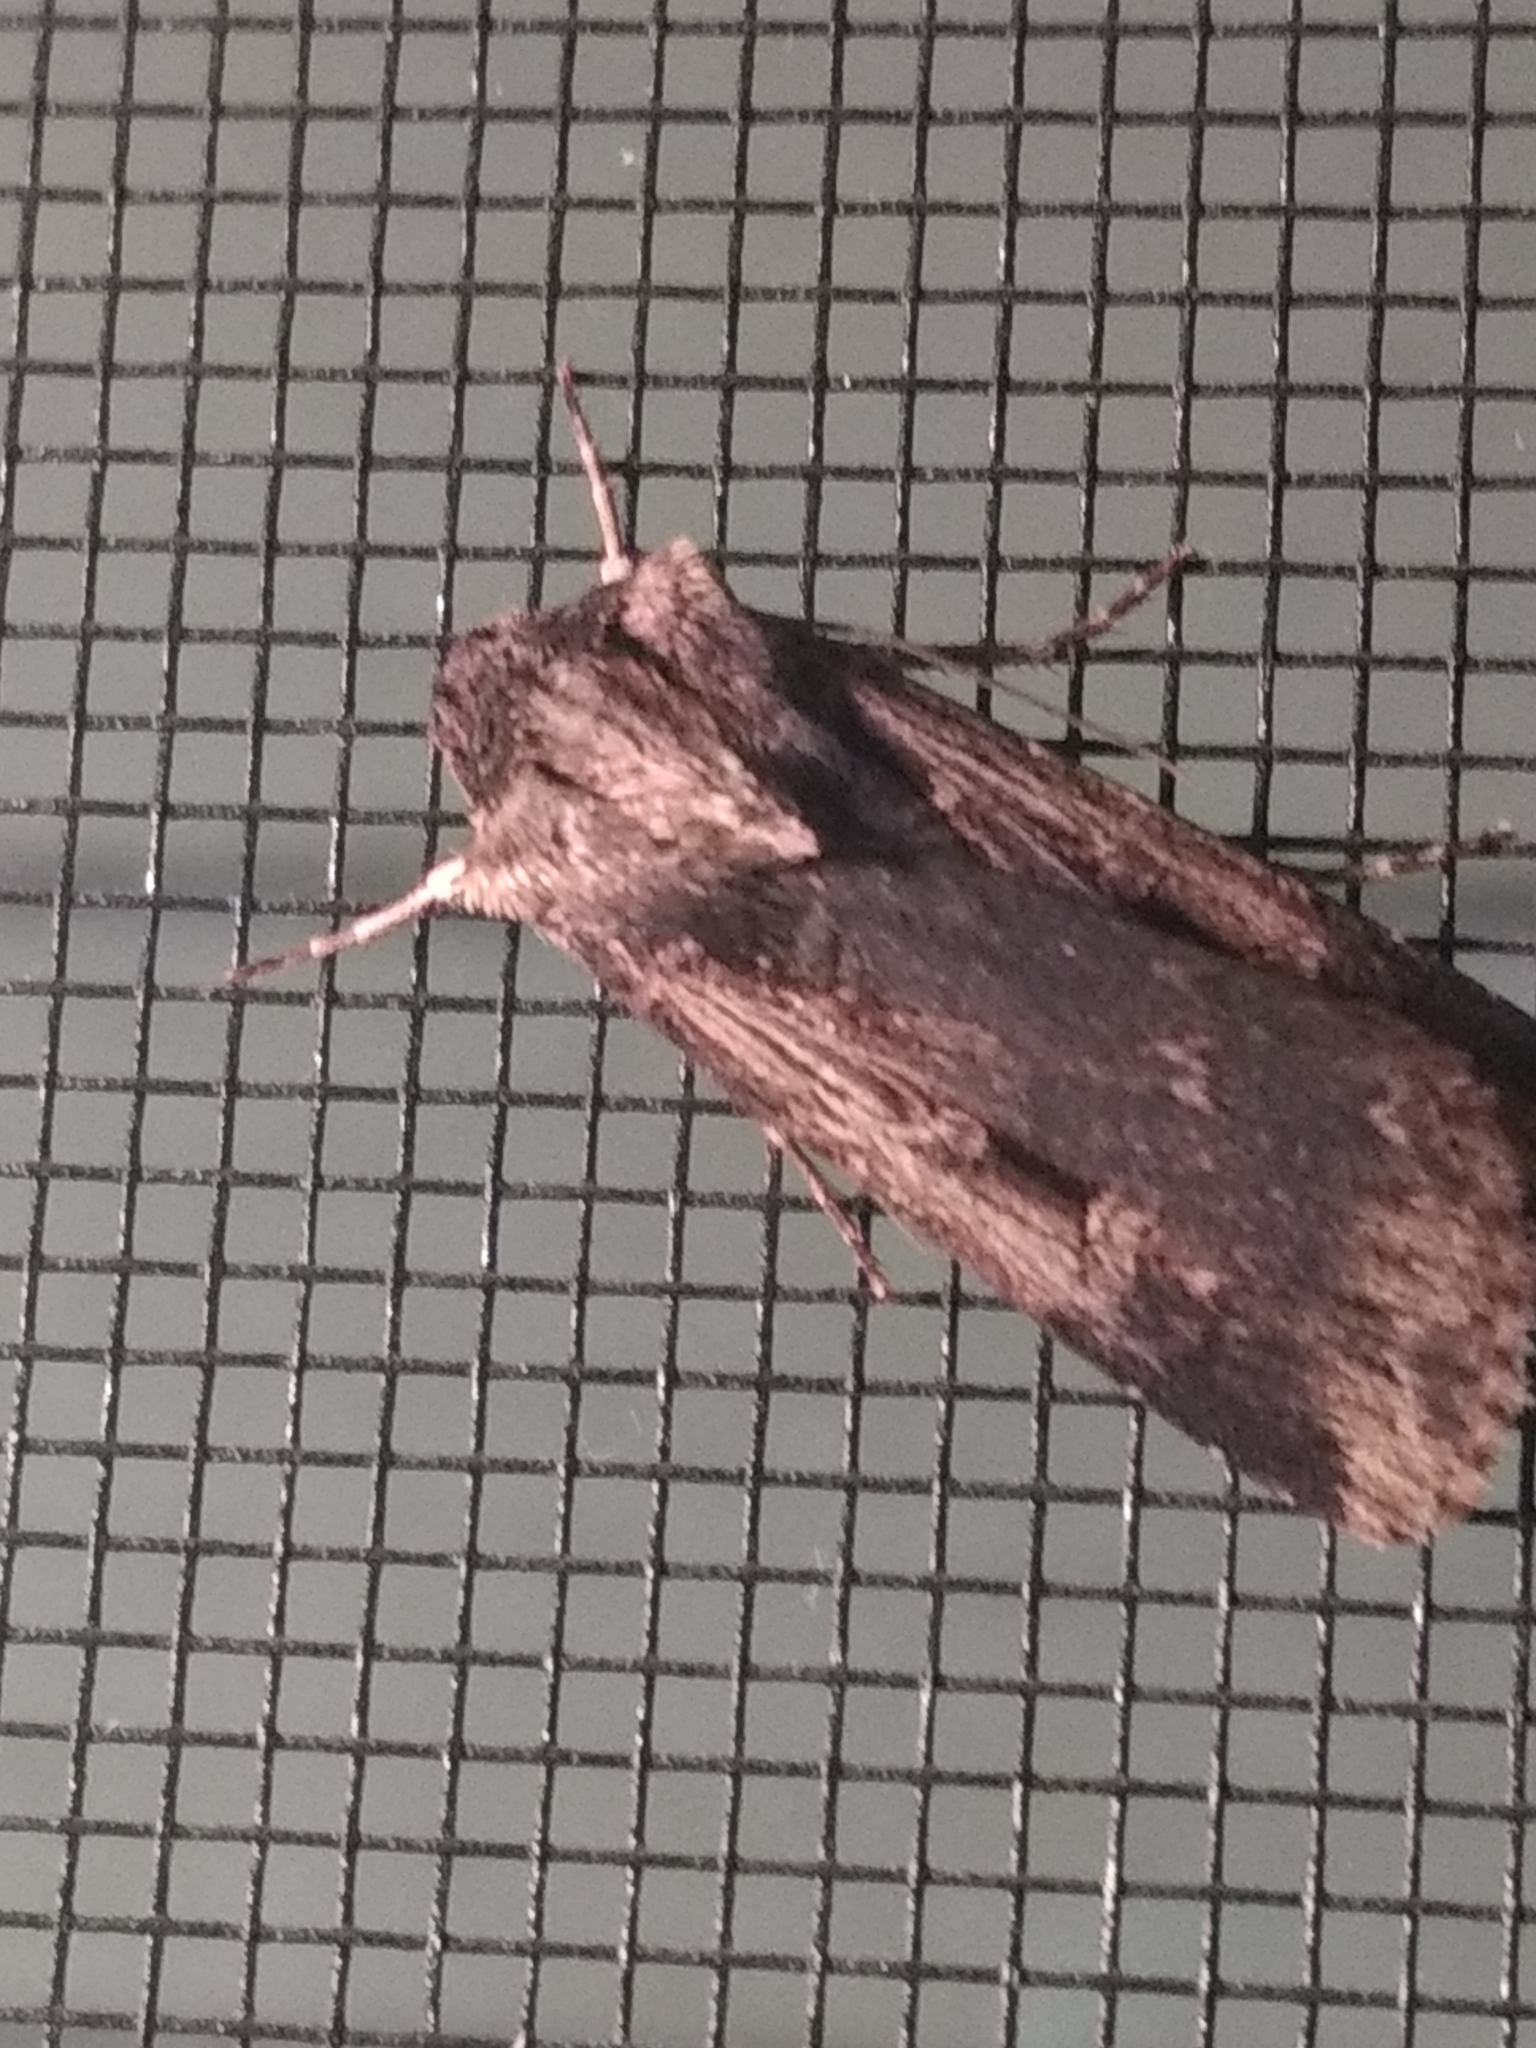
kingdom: Animalia
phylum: Arthropoda
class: Insecta
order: Lepidoptera
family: Noctuidae
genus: Feltia
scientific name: Feltia subterranea
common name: Granulate cutworm
